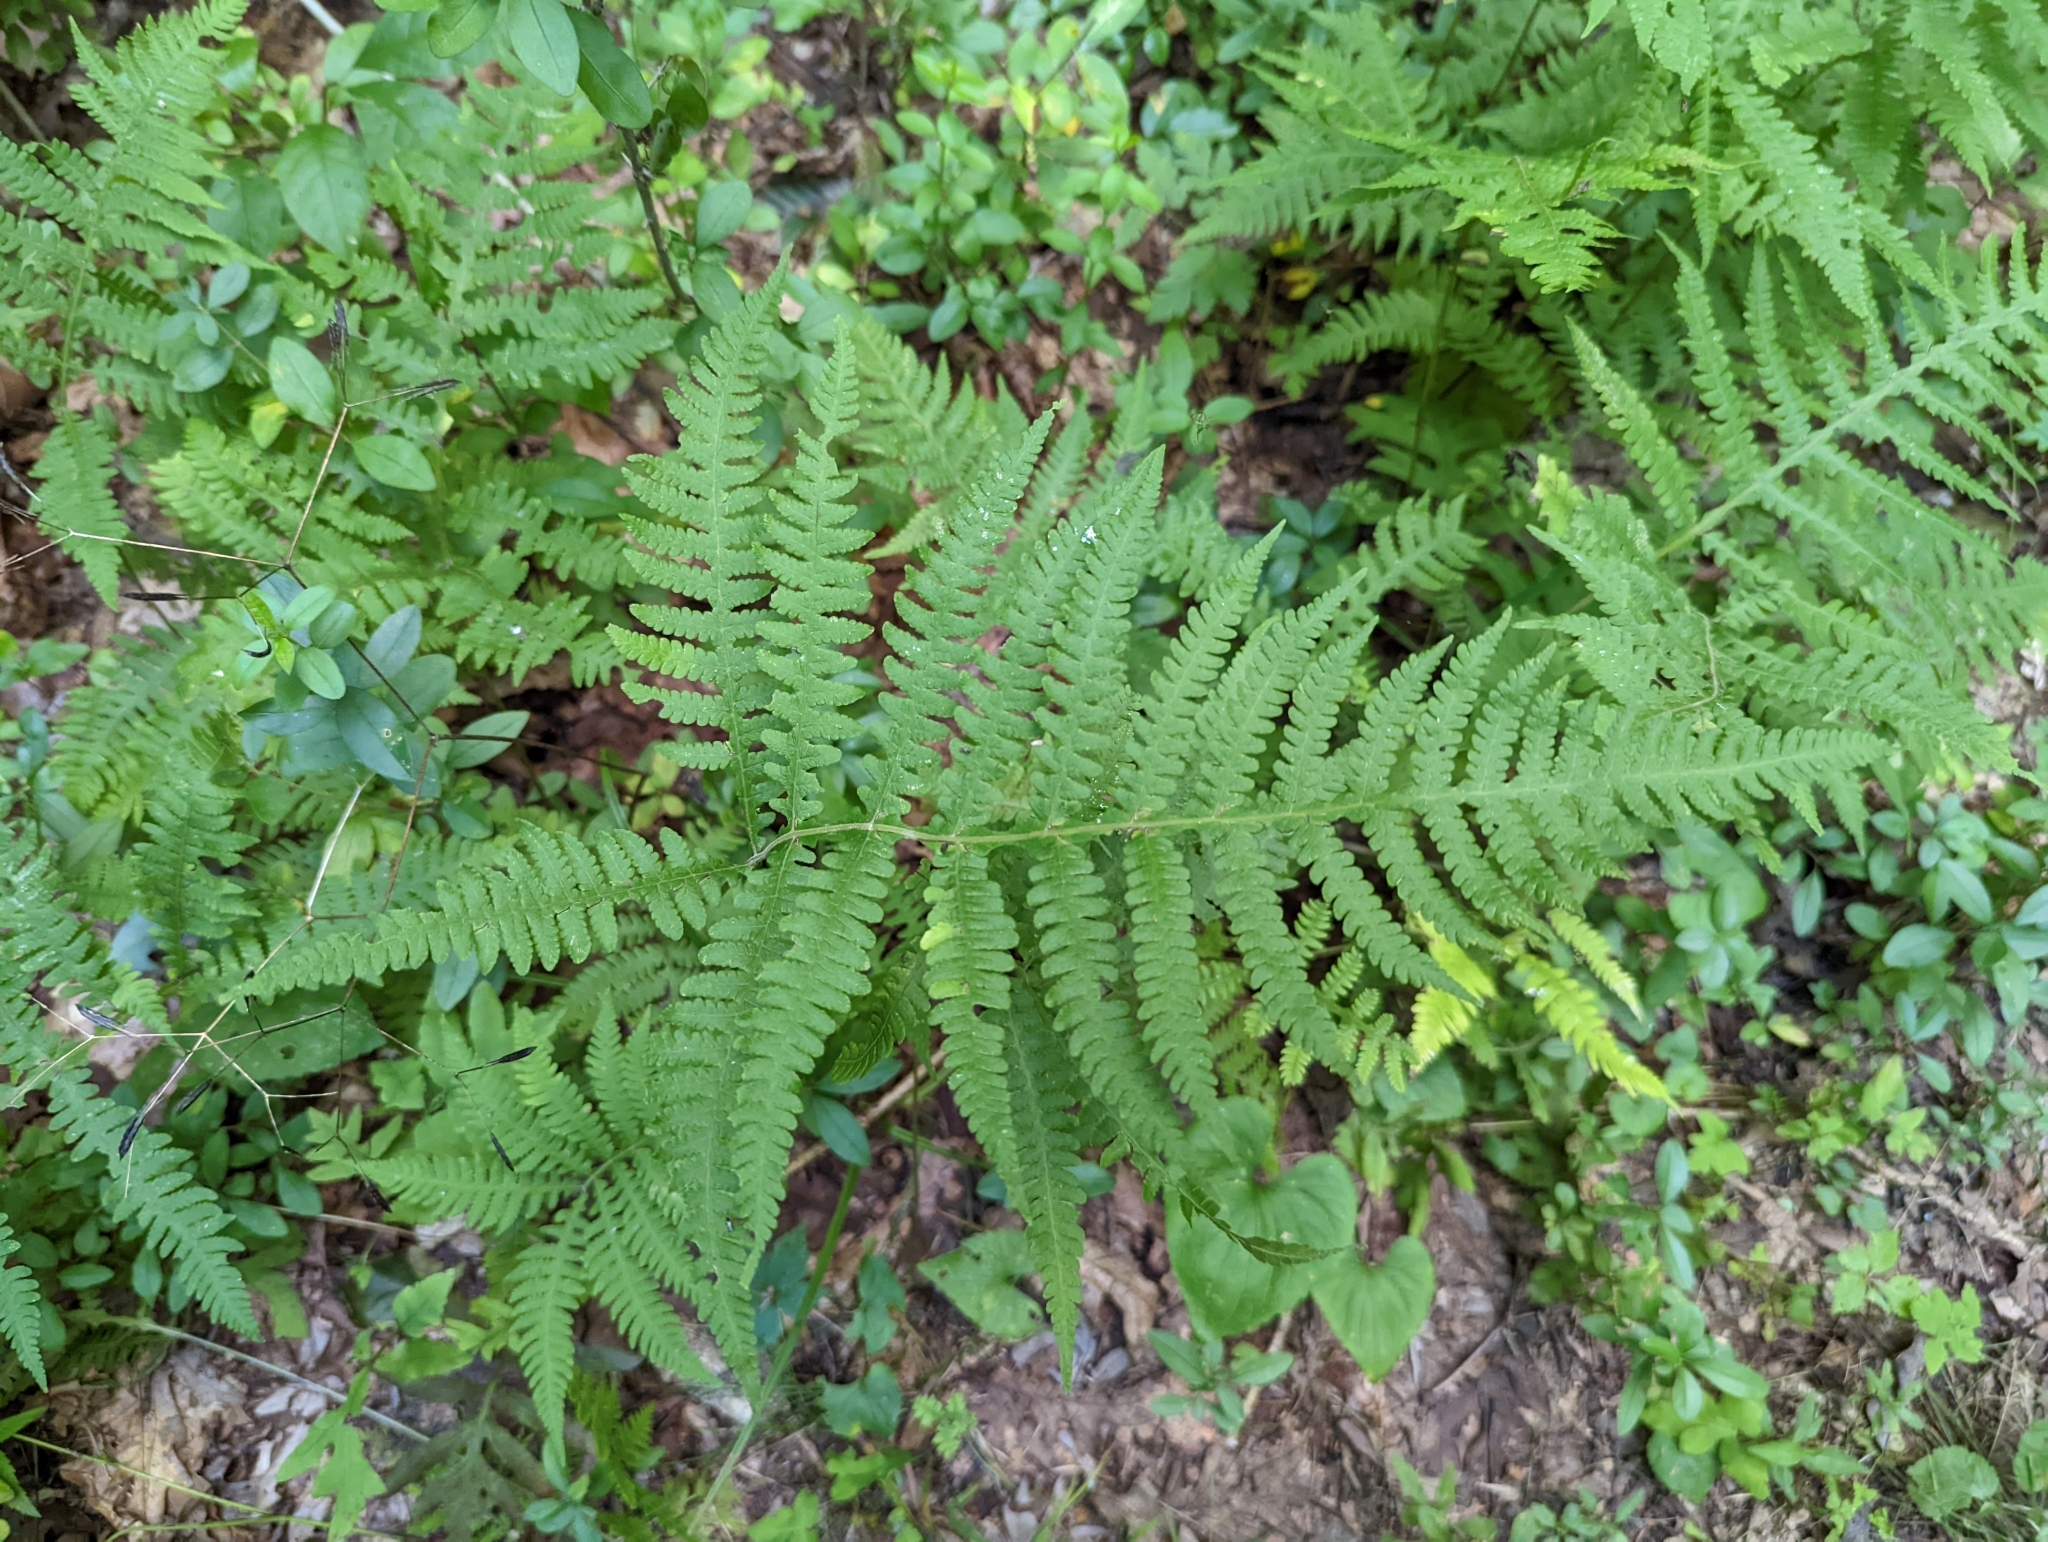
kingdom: Plantae
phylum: Tracheophyta
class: Polypodiopsida
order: Polypodiales
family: Thelypteridaceae
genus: Phegopteris
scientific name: Phegopteris hexagonoptera
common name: Broad beech fern
